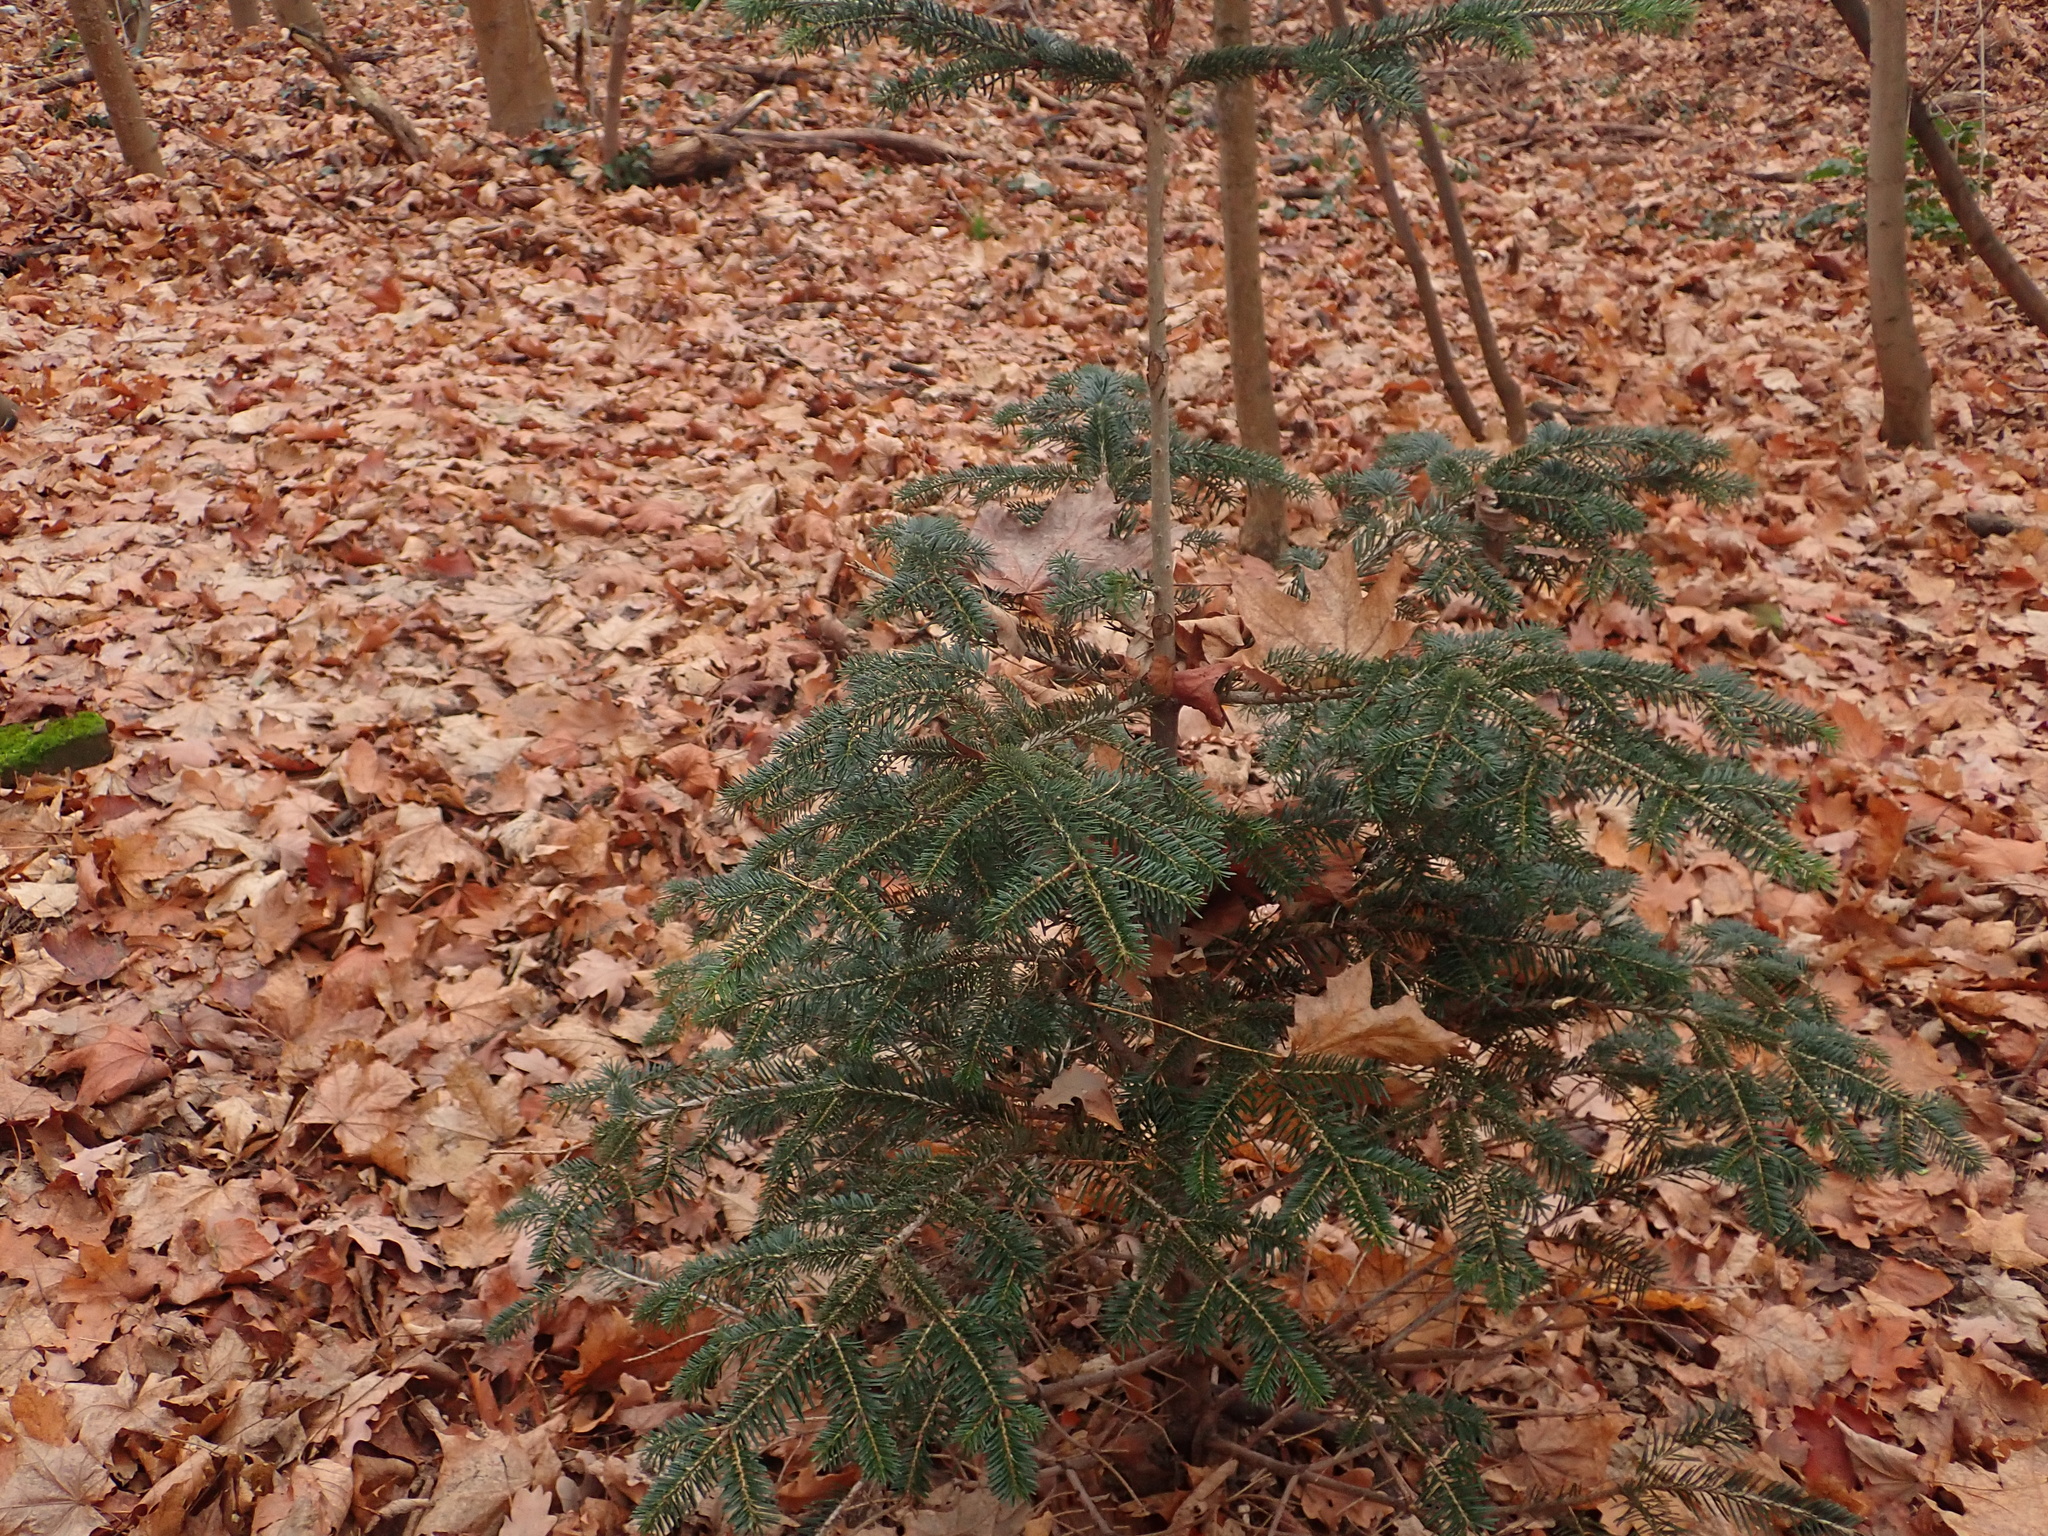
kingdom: Plantae
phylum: Tracheophyta
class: Pinopsida
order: Pinales
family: Taxaceae
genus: Taxus
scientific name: Taxus baccata
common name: Yew
